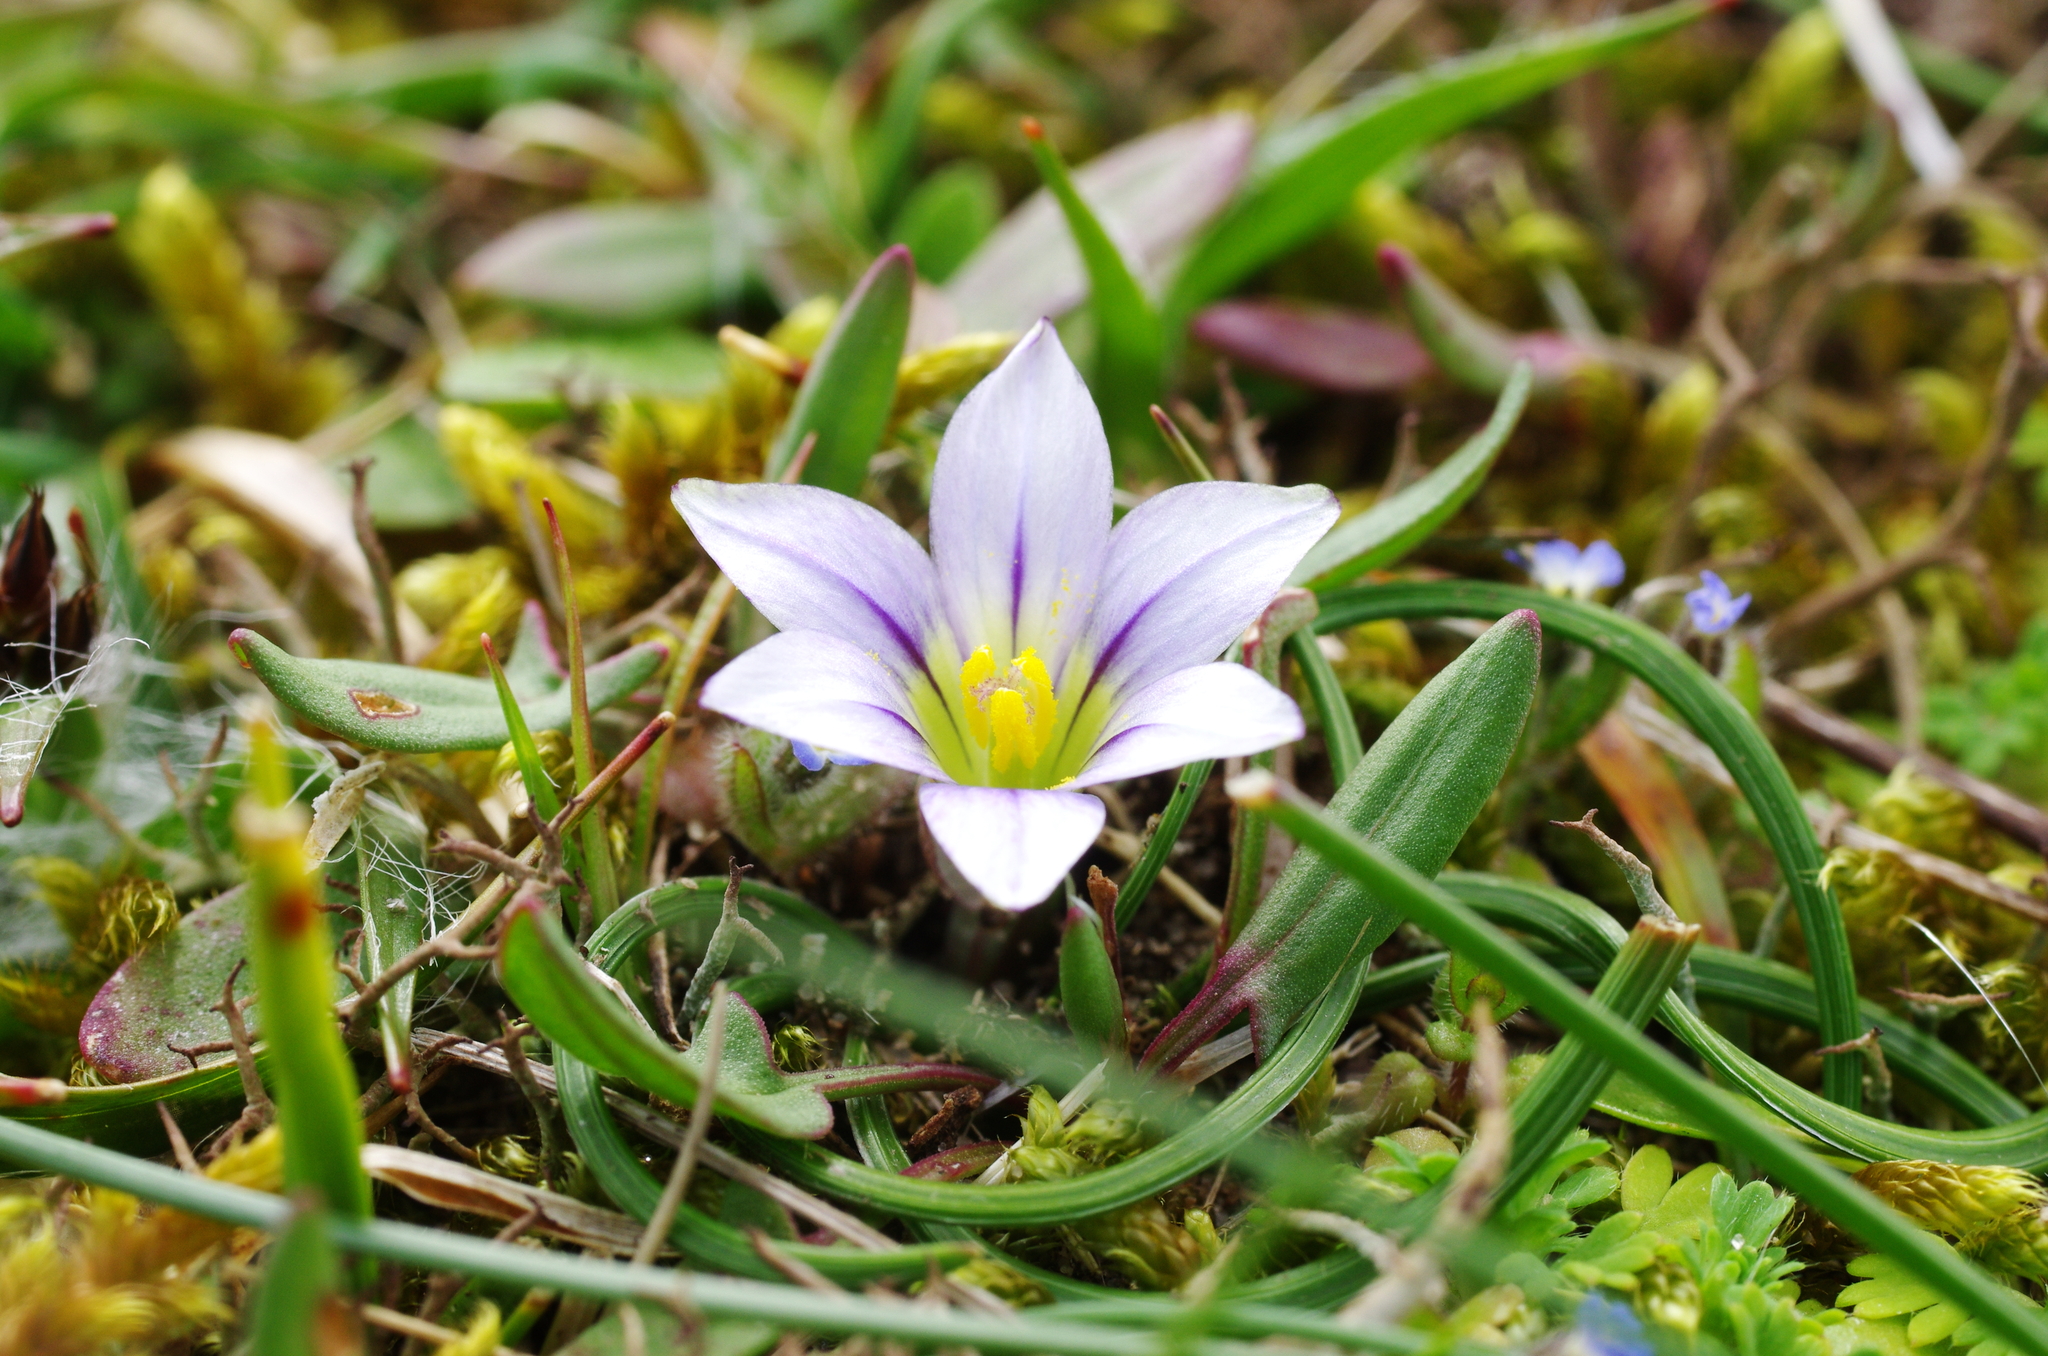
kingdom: Plantae
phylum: Tracheophyta
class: Liliopsida
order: Asparagales
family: Iridaceae
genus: Romulea
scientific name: Romulea columnae
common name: Sand-crocus
